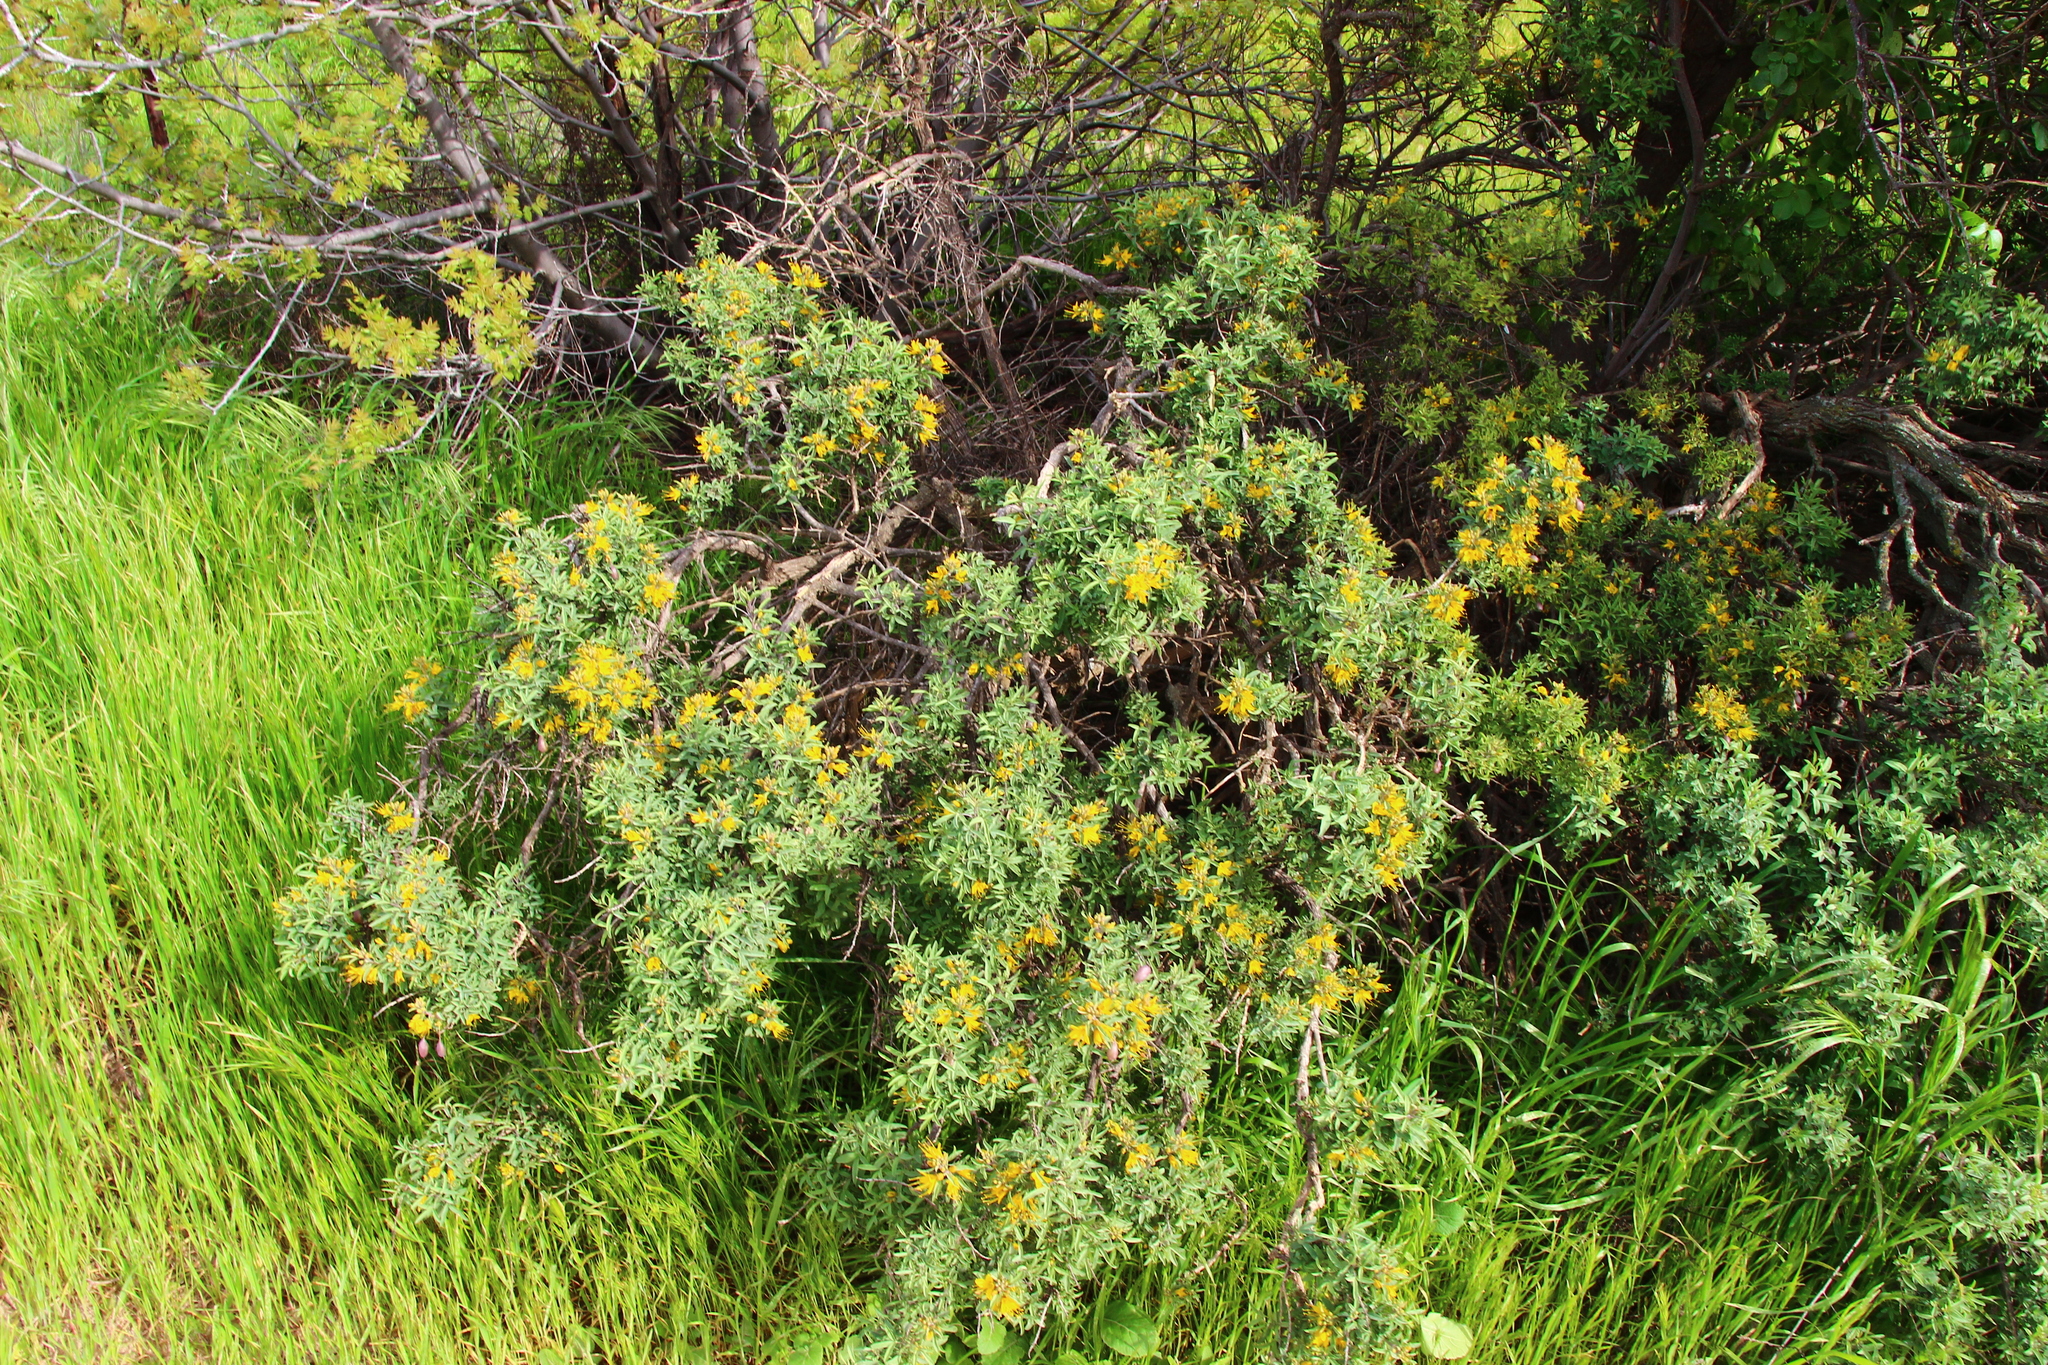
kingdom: Plantae
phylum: Tracheophyta
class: Magnoliopsida
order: Brassicales
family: Cleomaceae
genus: Cleomella
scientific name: Cleomella arborea
